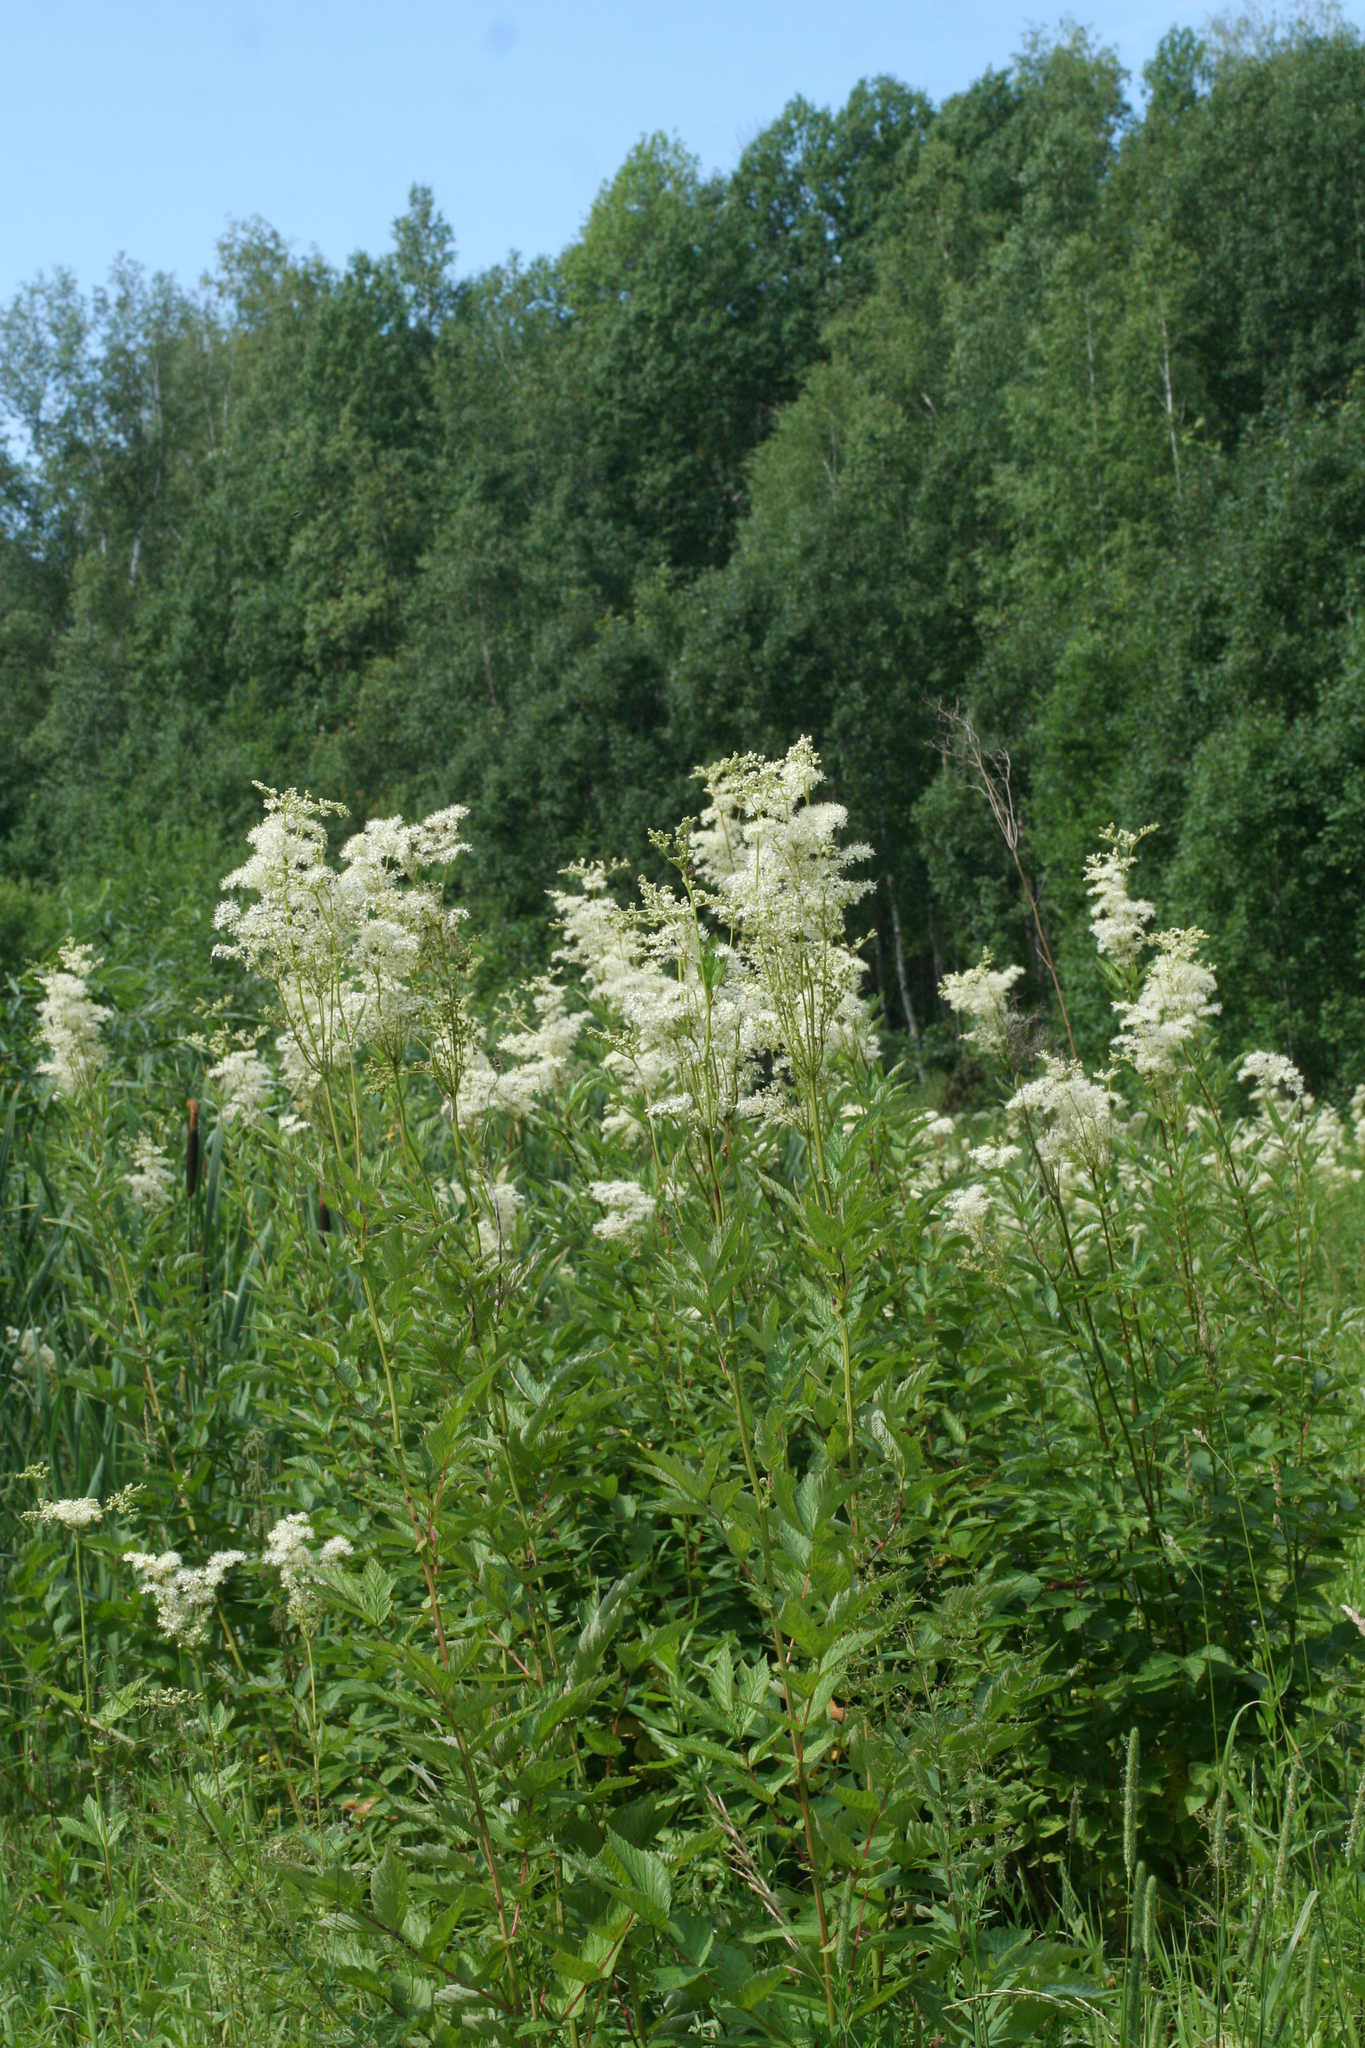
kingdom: Plantae
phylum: Tracheophyta
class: Magnoliopsida
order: Rosales
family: Rosaceae
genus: Filipendula
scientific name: Filipendula ulmaria
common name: Meadowsweet
